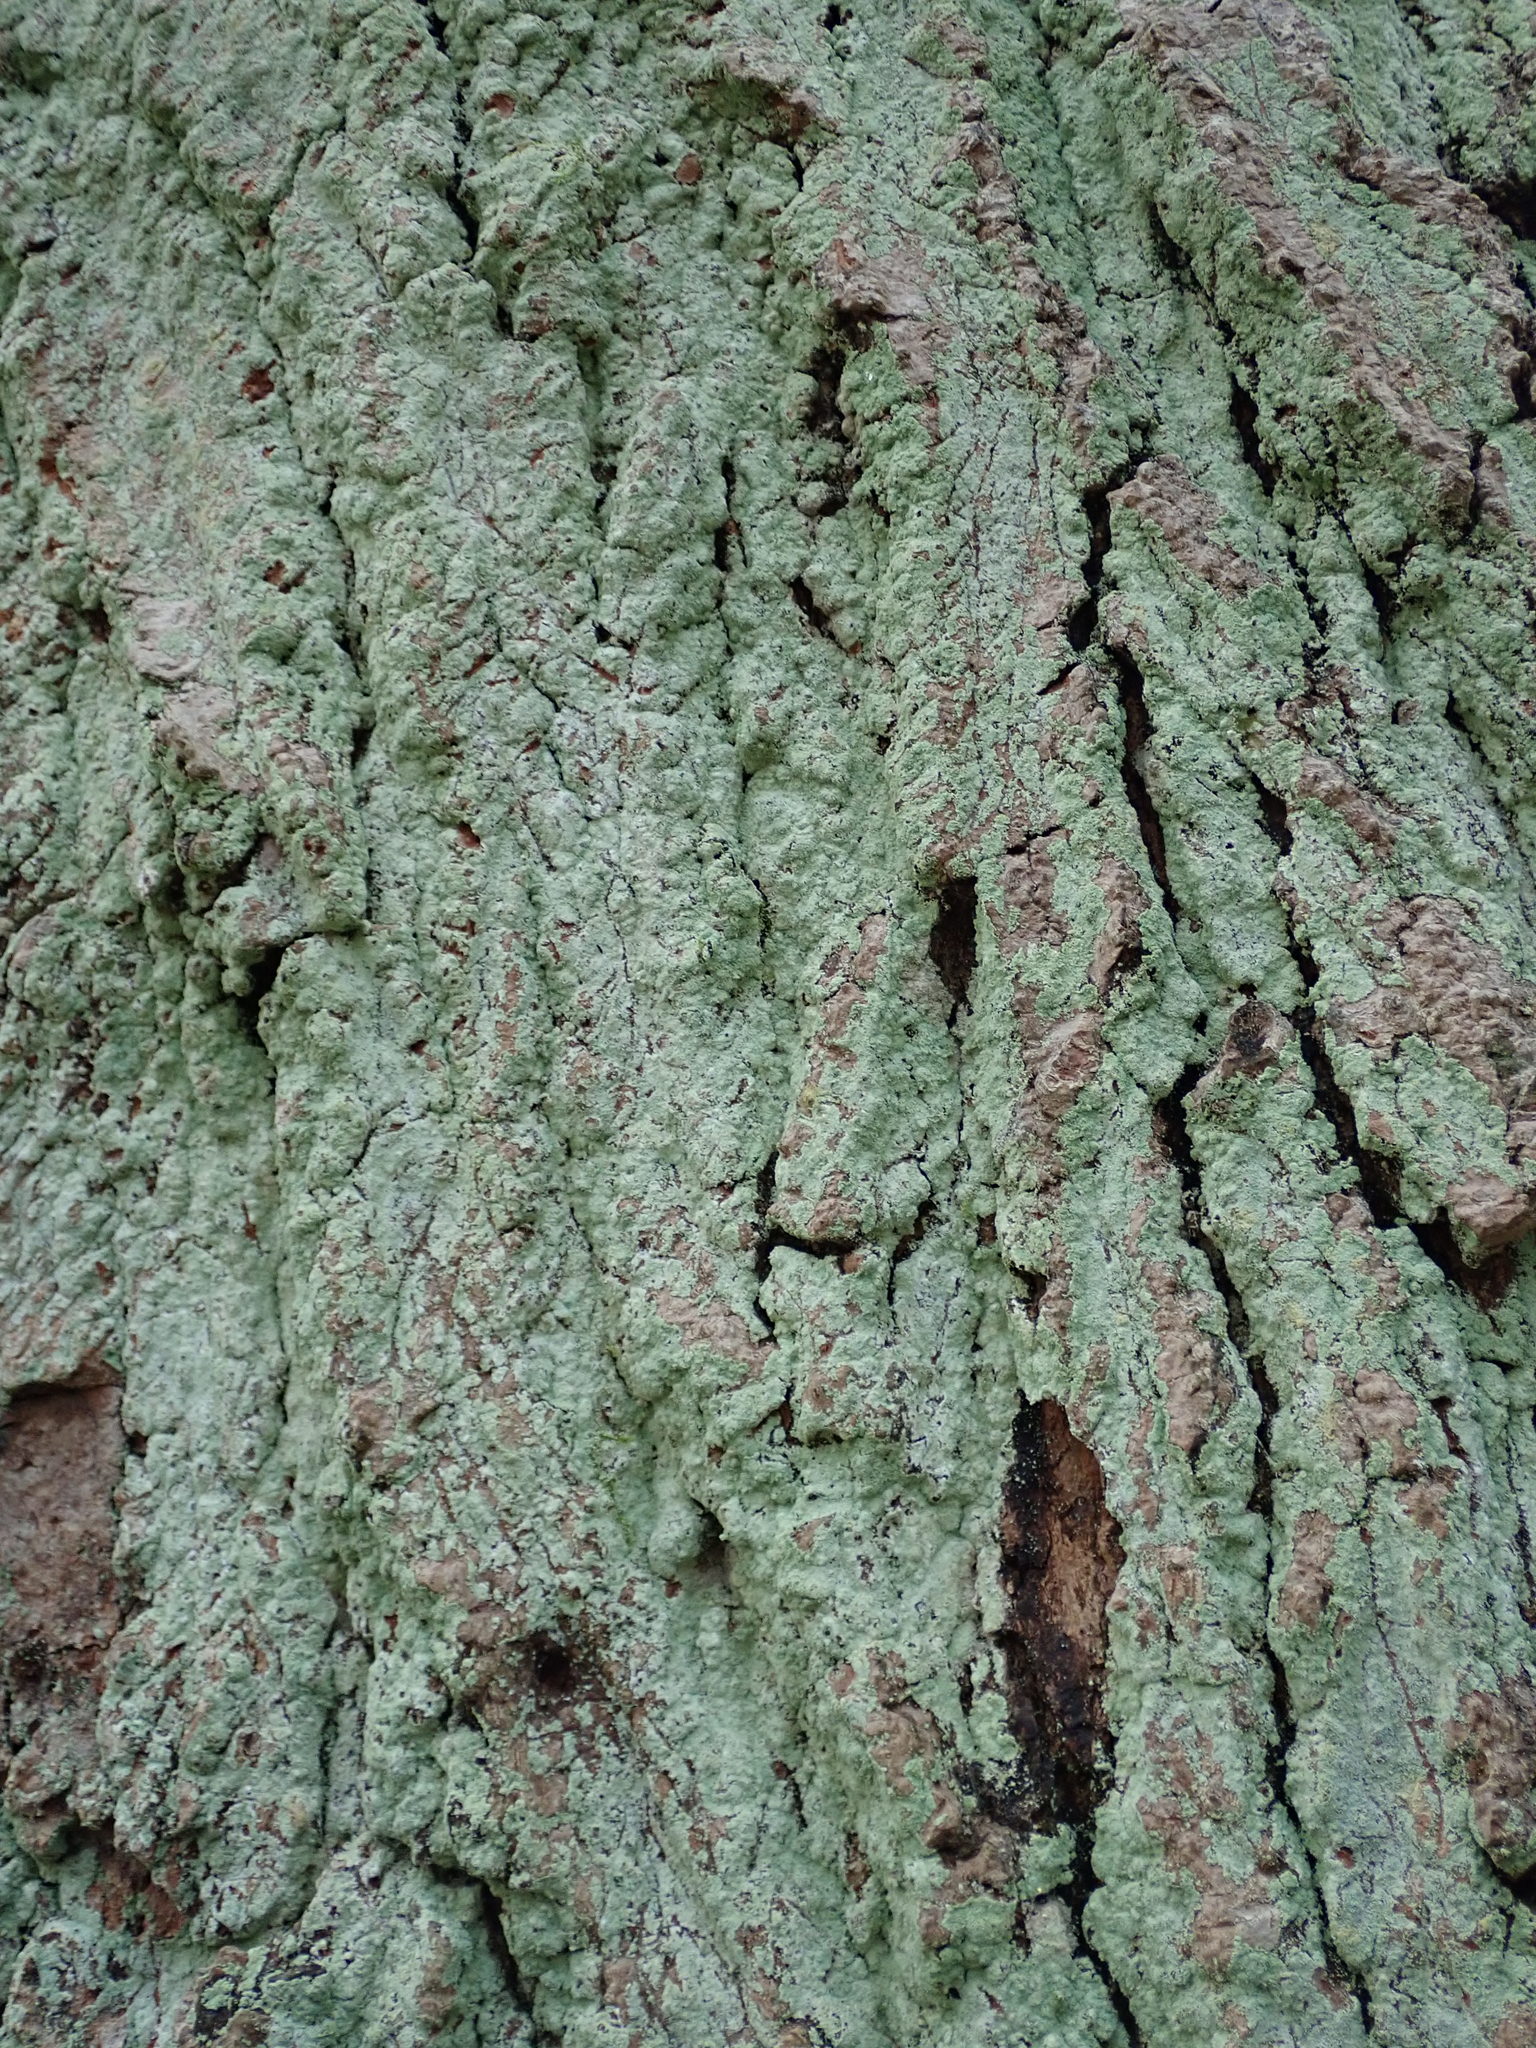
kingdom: Fungi
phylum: Ascomycota
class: Lecanoromycetes
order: Lecanorales
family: Stereocaulaceae
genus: Lepraria
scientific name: Lepraria lobificans
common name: Fluffy dust lichen
